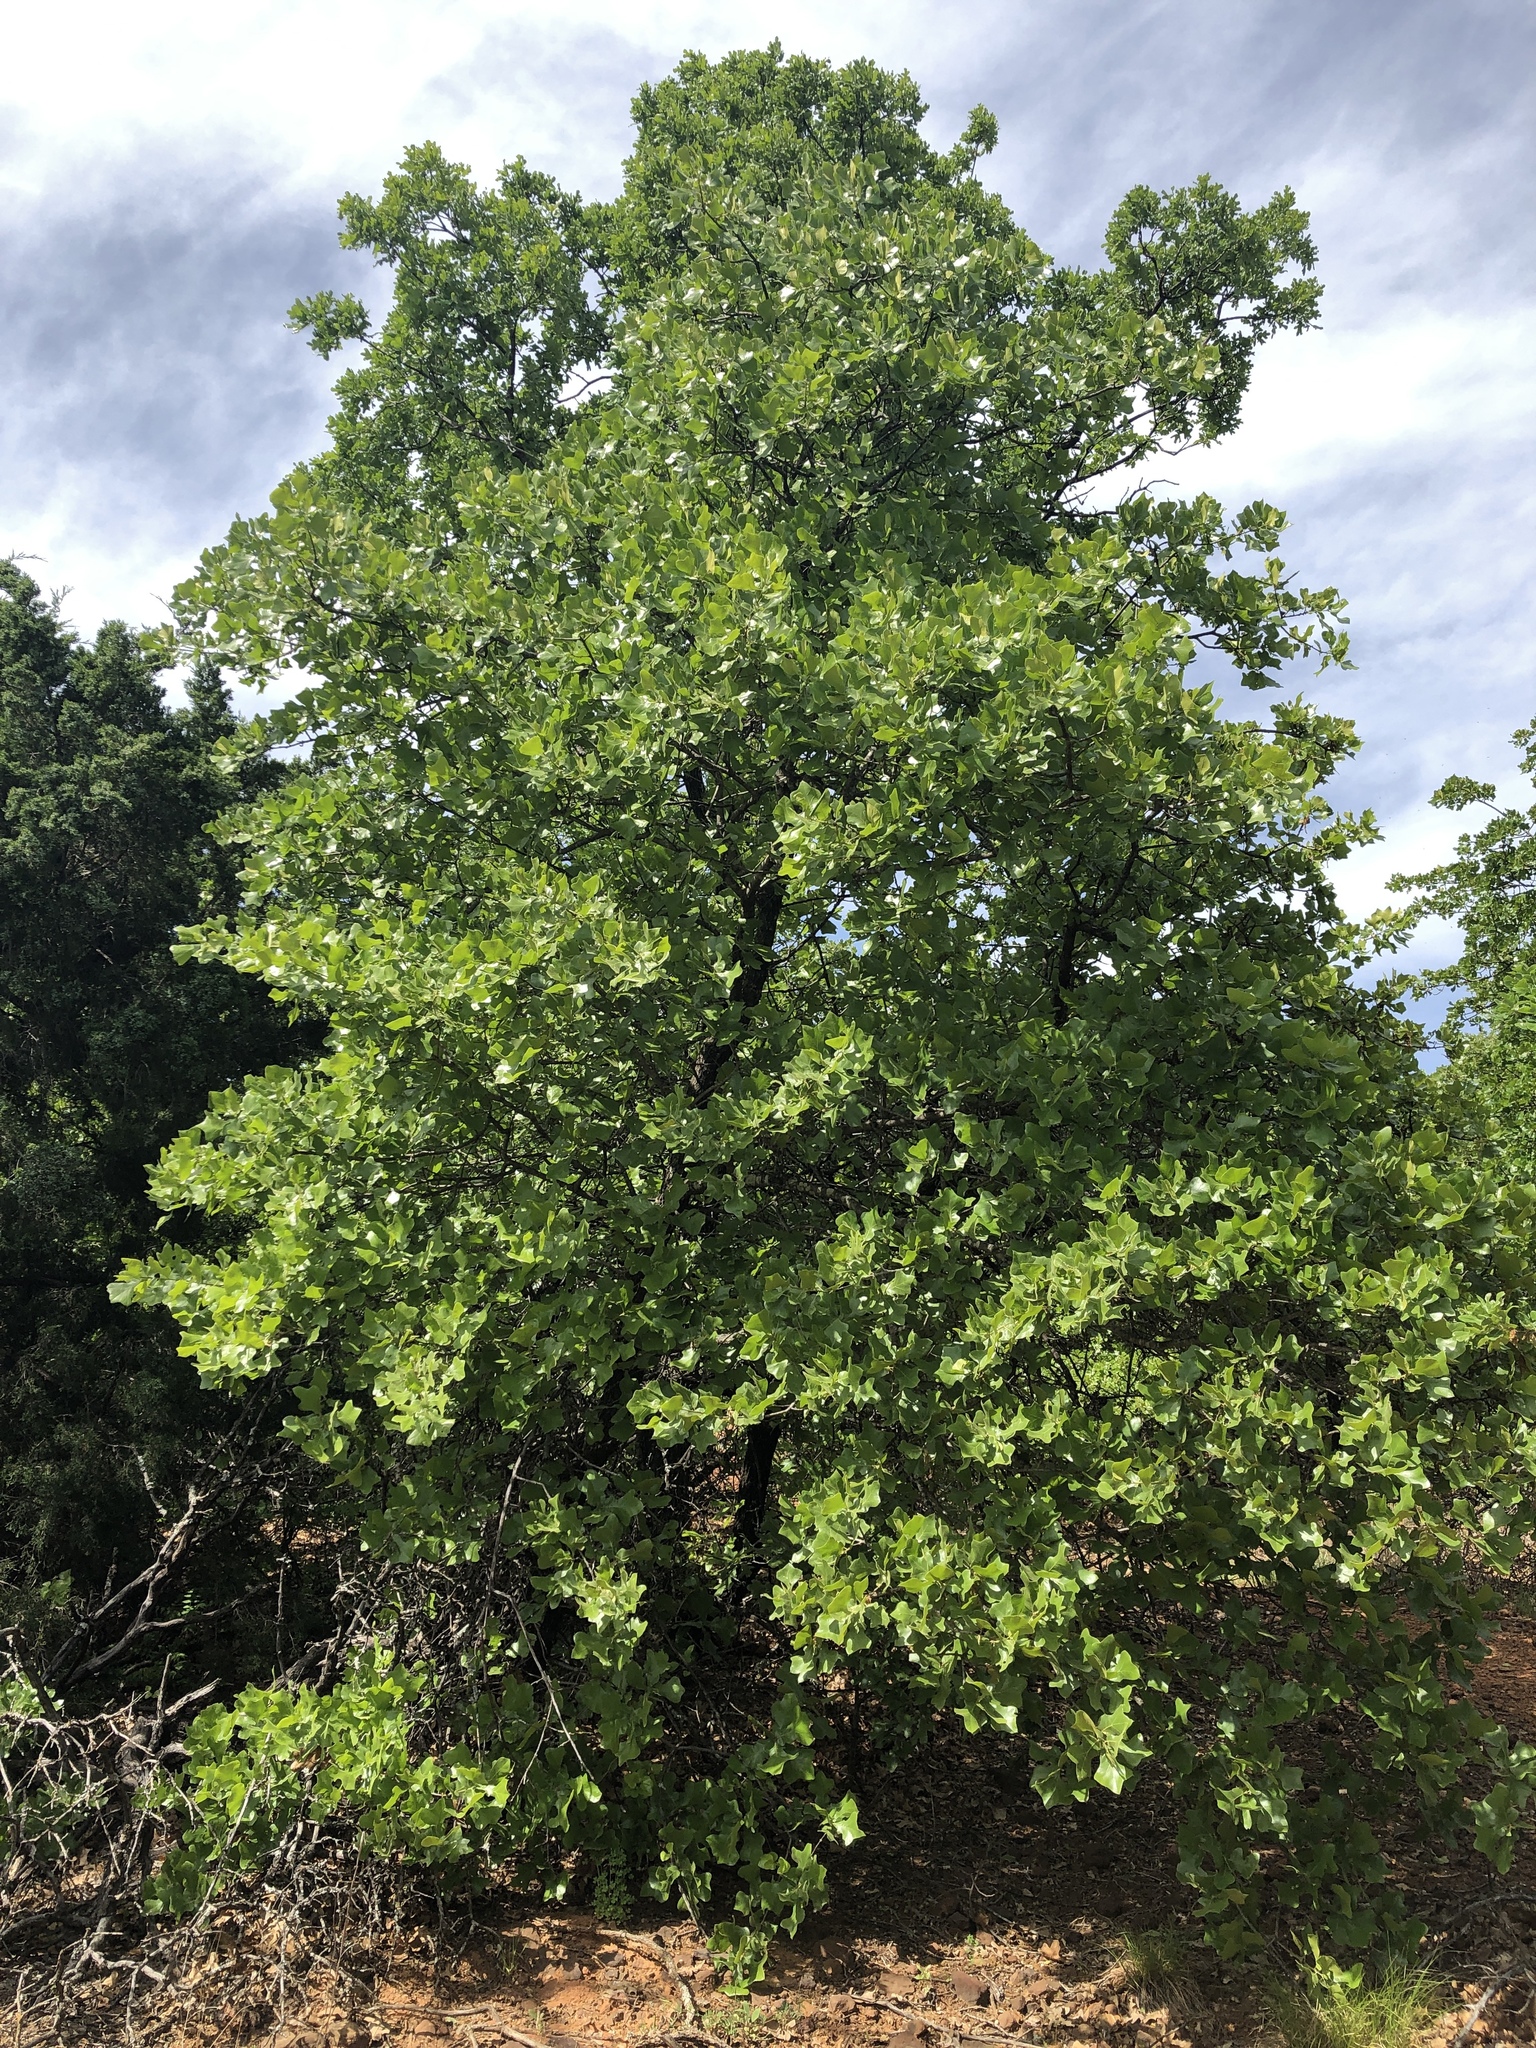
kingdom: Plantae
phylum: Tracheophyta
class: Magnoliopsida
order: Fagales
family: Fagaceae
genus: Quercus
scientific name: Quercus marilandica
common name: Blackjack oak
